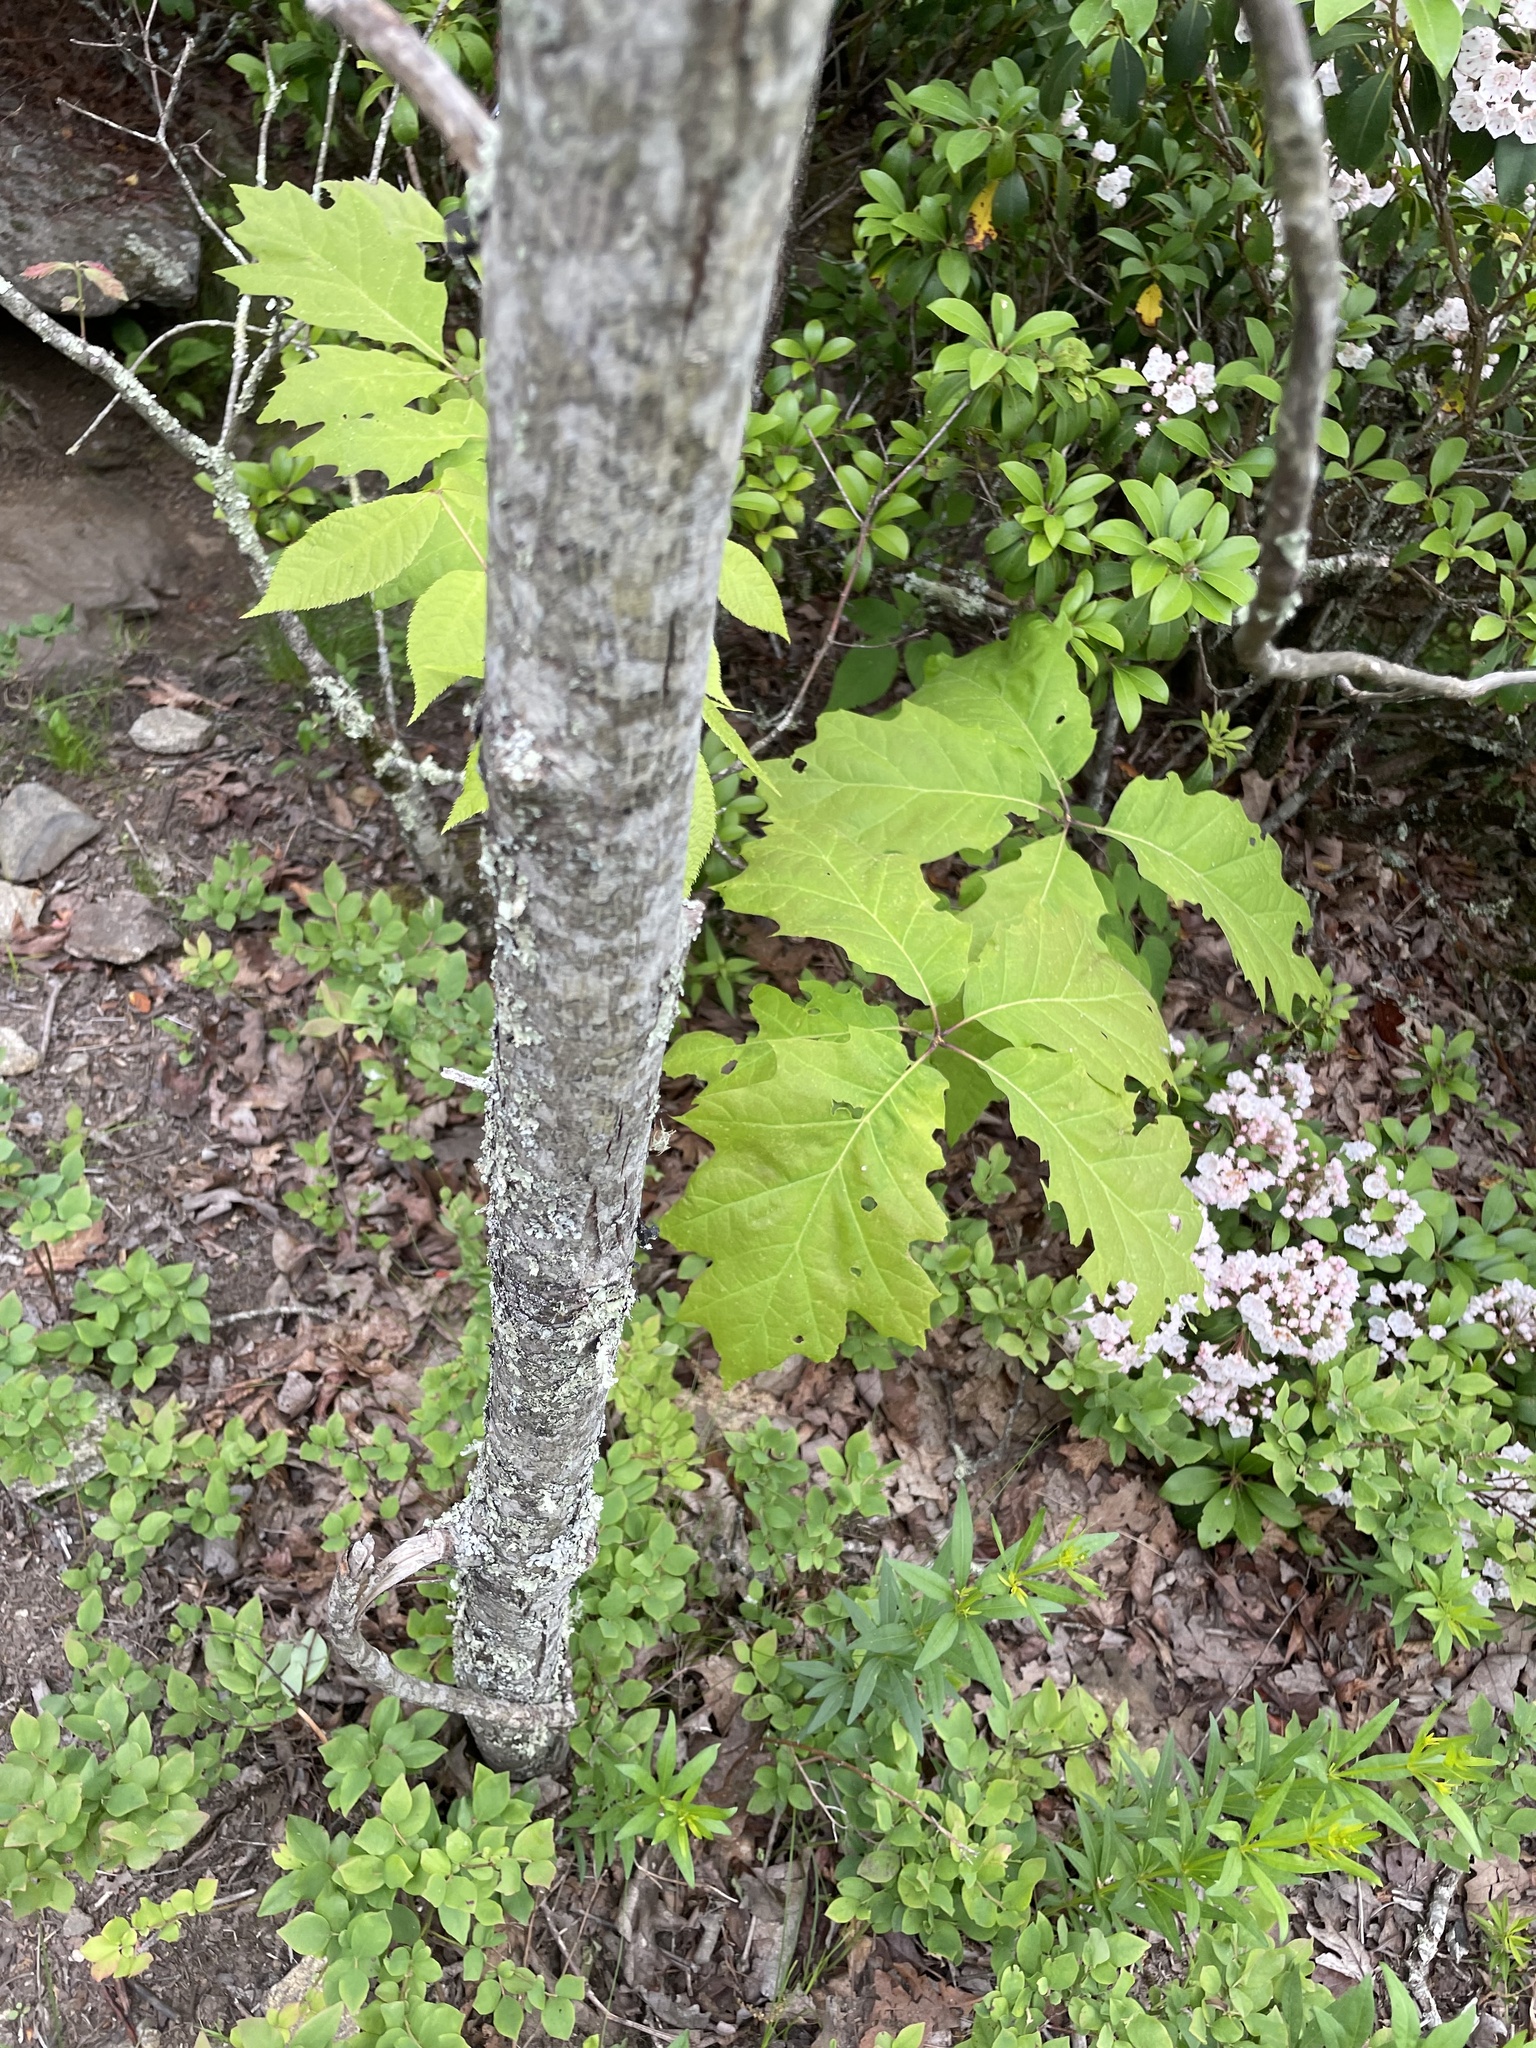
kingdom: Plantae
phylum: Tracheophyta
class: Magnoliopsida
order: Fagales
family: Juglandaceae
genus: Carya
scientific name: Carya glabra
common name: Pignut hickory
